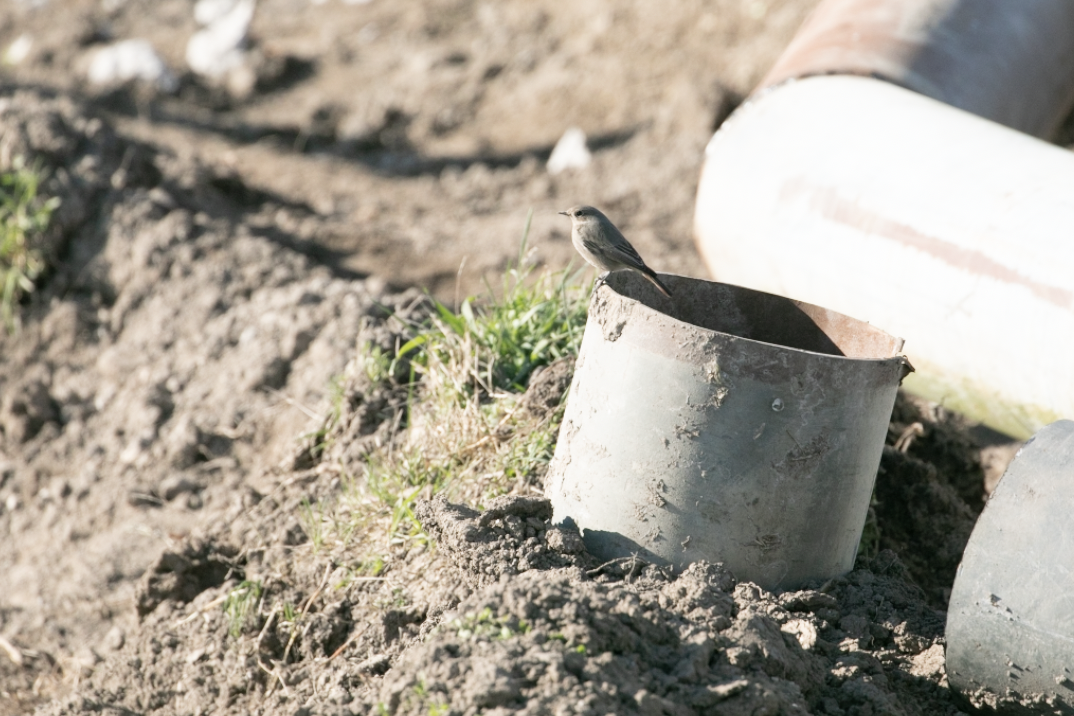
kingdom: Animalia
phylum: Chordata
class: Aves
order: Passeriformes
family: Muscicapidae
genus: Phoenicurus
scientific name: Phoenicurus ochruros
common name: Black redstart
